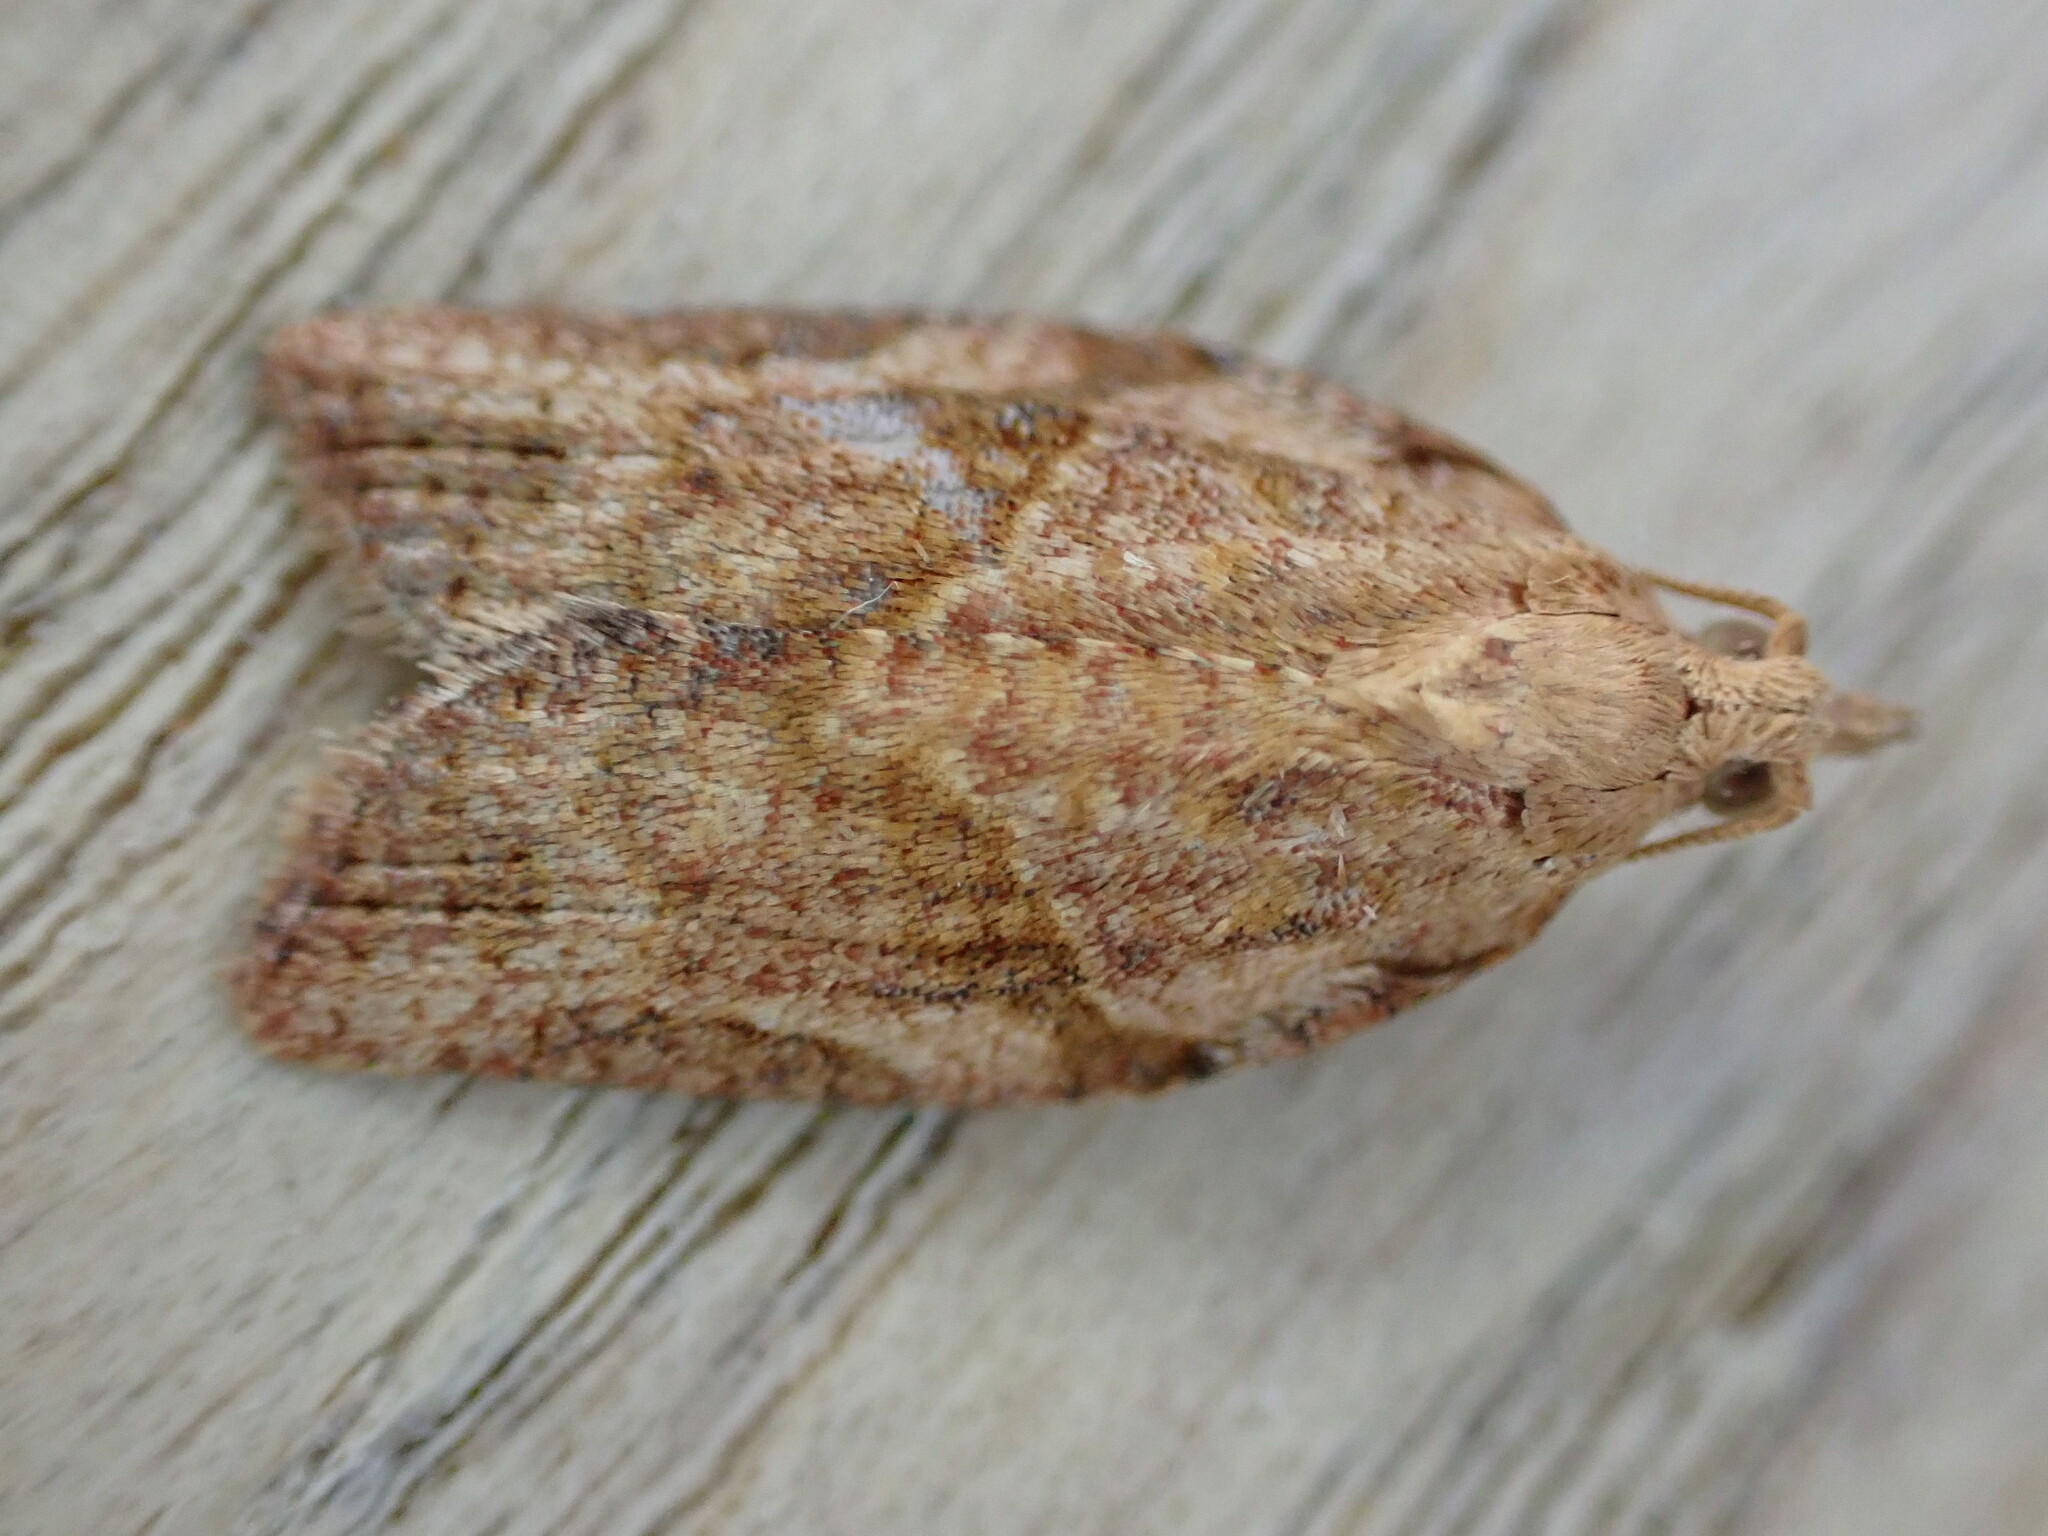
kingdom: Animalia
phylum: Arthropoda
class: Insecta
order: Lepidoptera
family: Tortricidae
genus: Epiphyas
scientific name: Epiphyas postvittana
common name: Light brown apple moth
